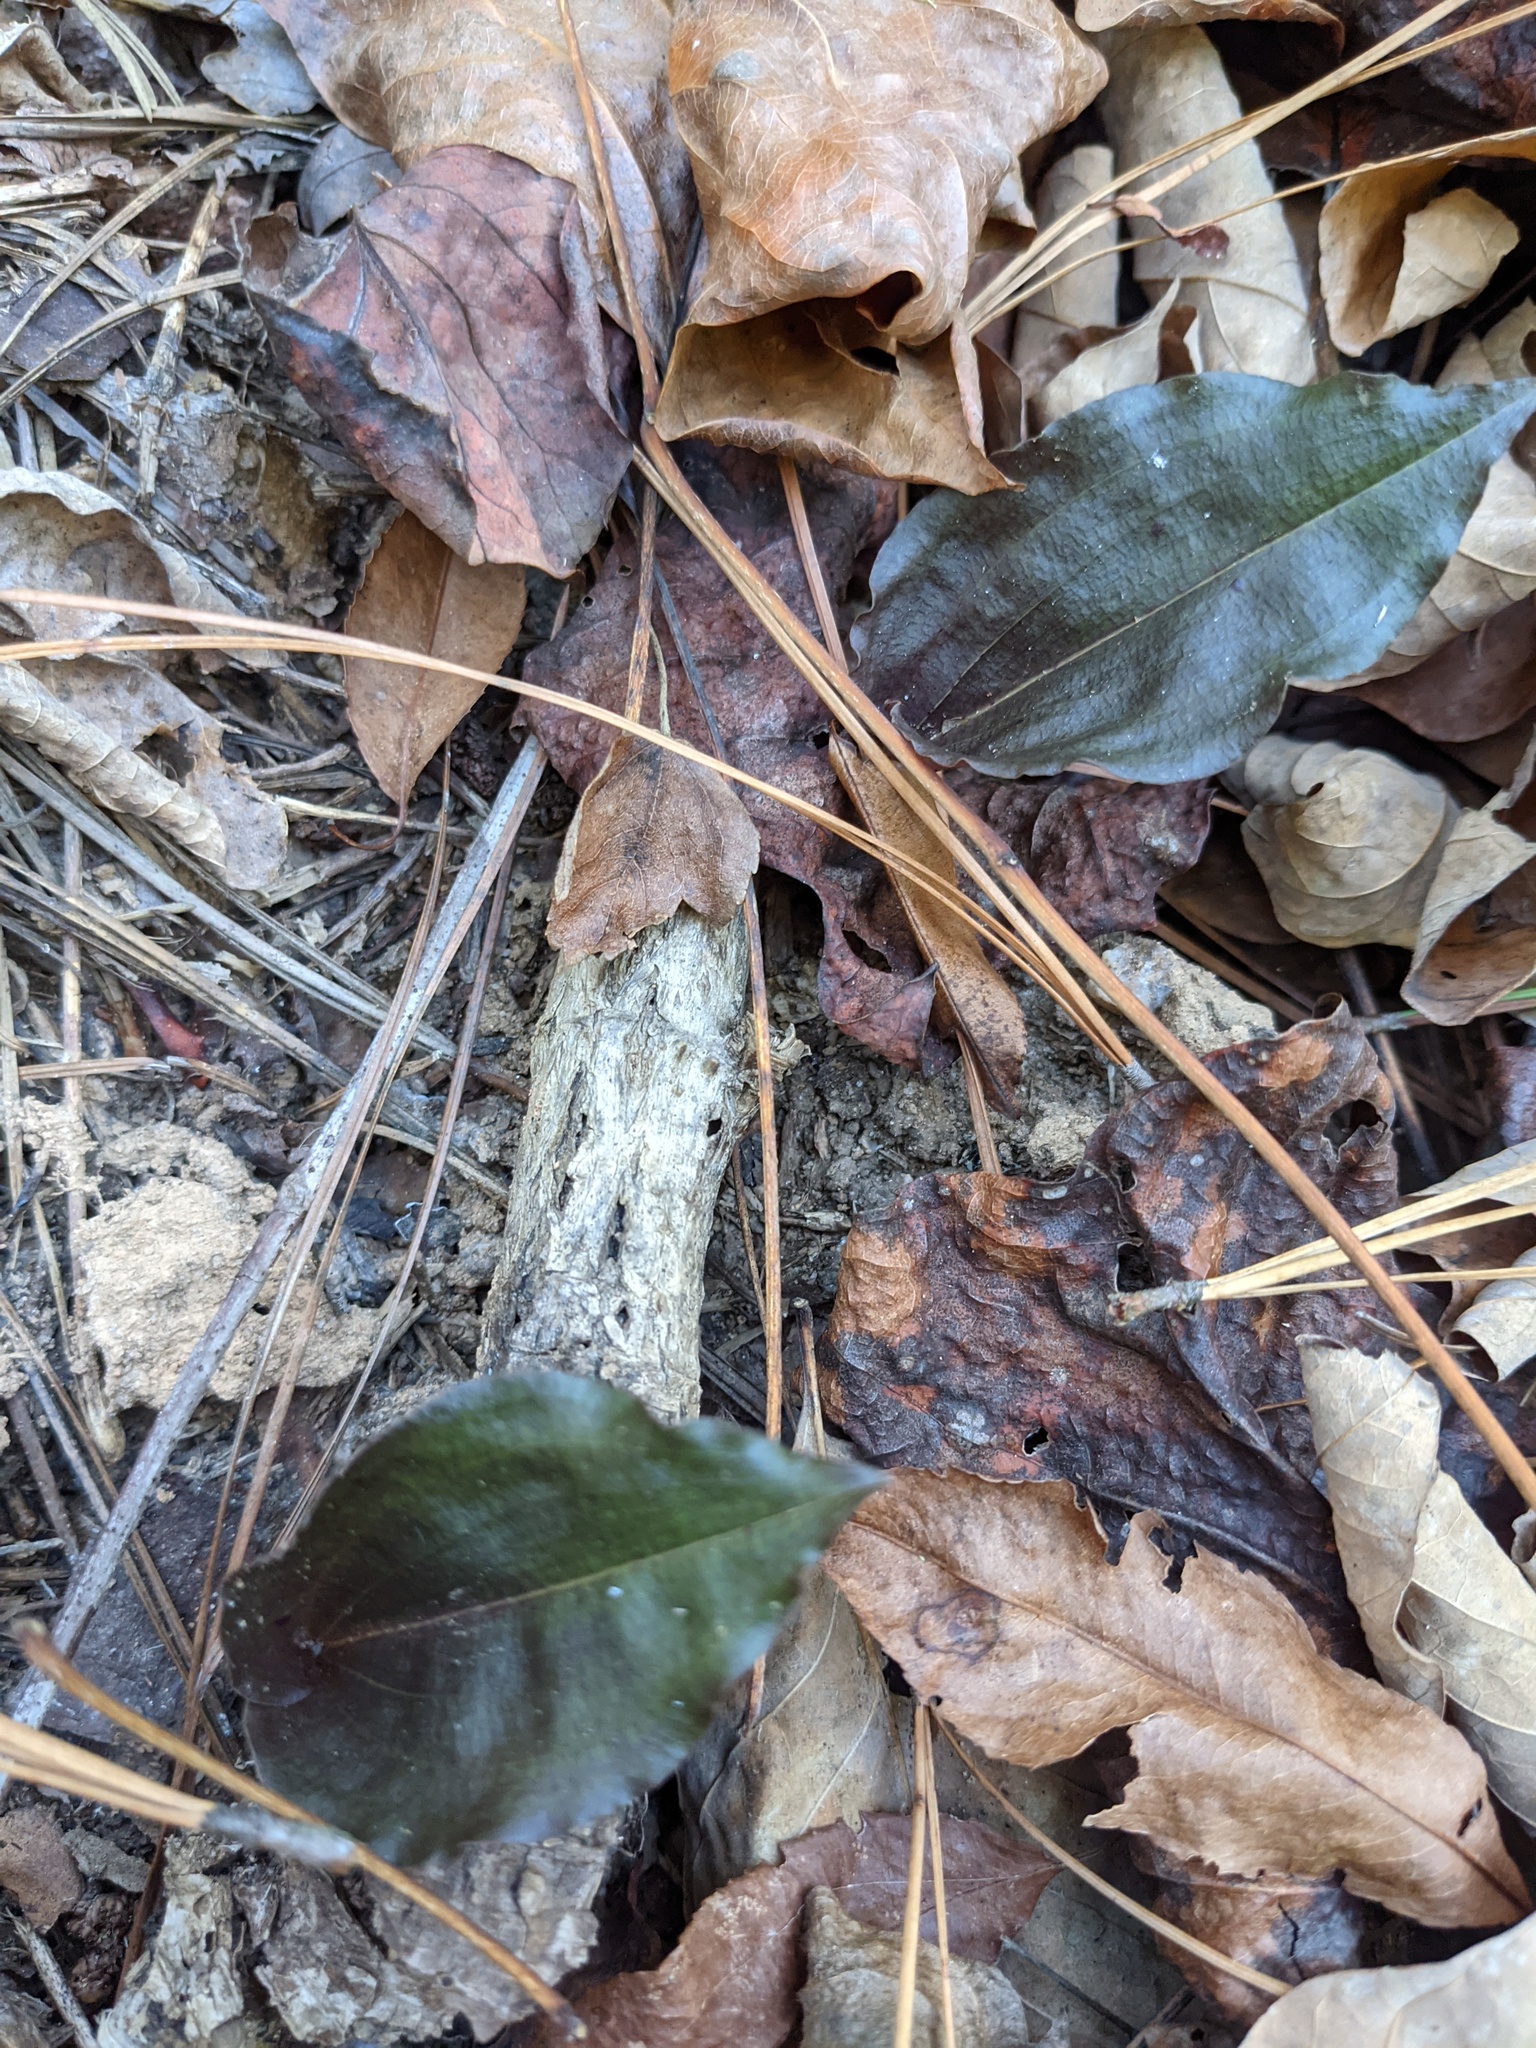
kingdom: Plantae
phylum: Tracheophyta
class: Liliopsida
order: Asparagales
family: Orchidaceae
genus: Tipularia
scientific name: Tipularia discolor
